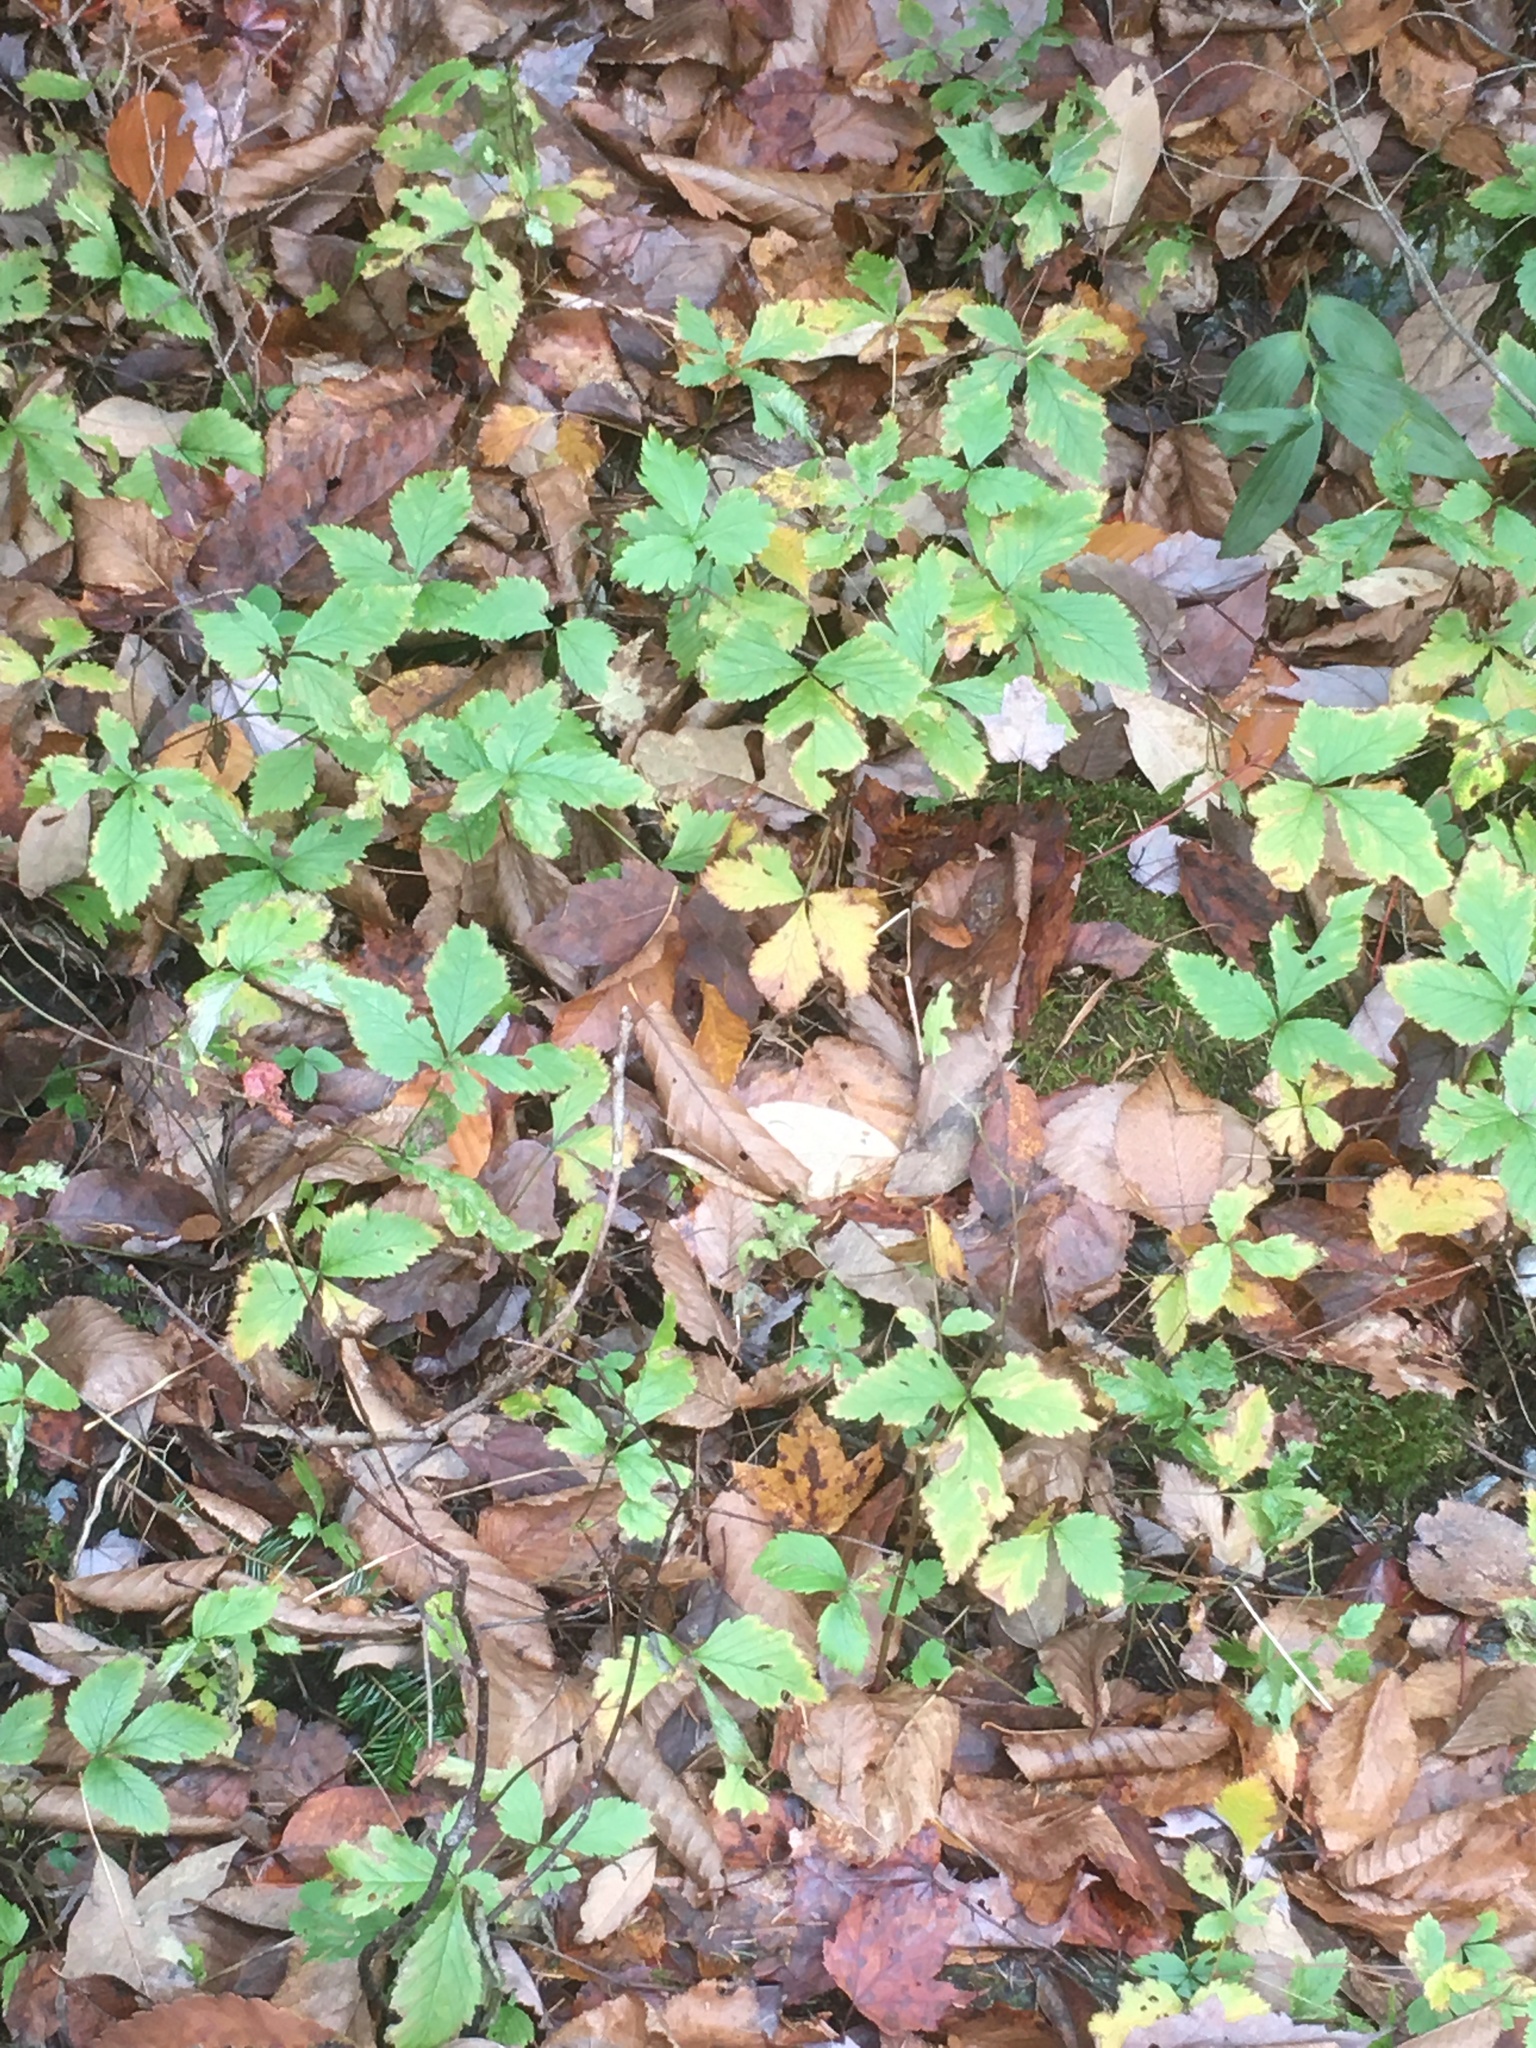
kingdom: Plantae
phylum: Tracheophyta
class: Magnoliopsida
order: Rosales
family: Rosaceae
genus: Rubus
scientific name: Rubus pubescens
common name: Dwarf raspberry
